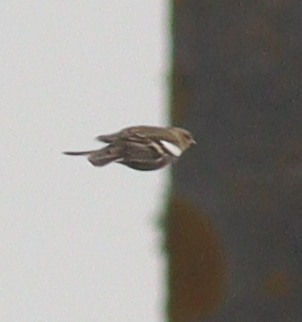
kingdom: Animalia
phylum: Chordata
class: Aves
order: Passeriformes
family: Fringillidae
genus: Fringilla
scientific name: Fringilla coelebs
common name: Common chaffinch
